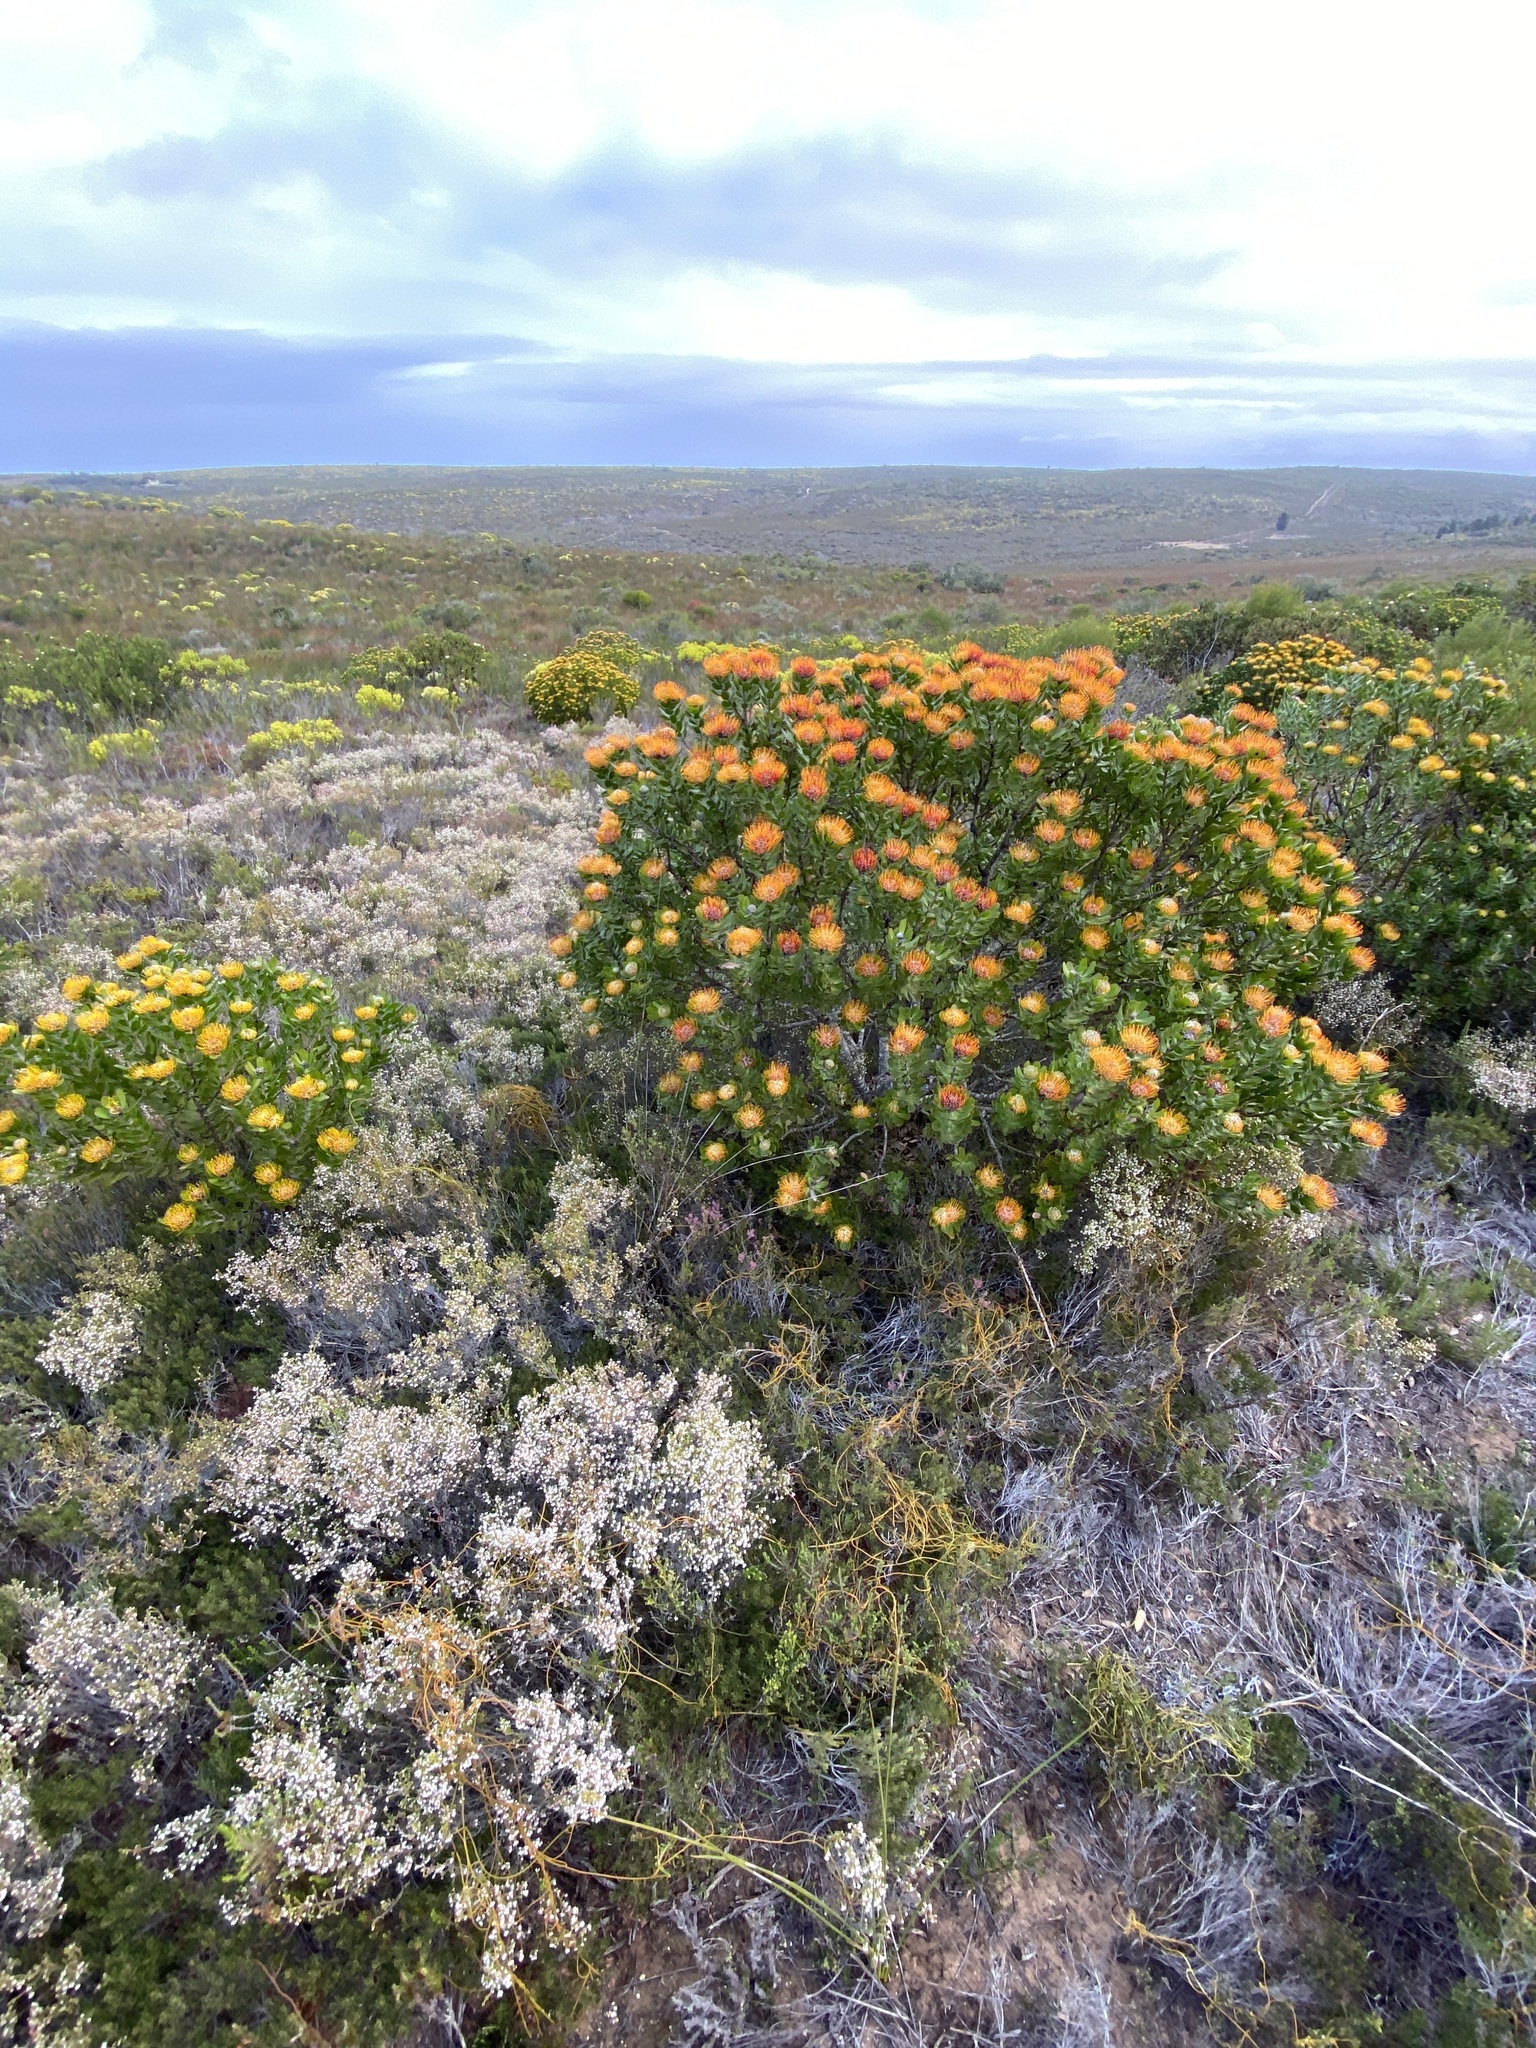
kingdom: Plantae
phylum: Tracheophyta
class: Magnoliopsida
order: Proteales
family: Proteaceae
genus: Leucospermum
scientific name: Leucospermum praecox
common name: Mossel bay pincushion
